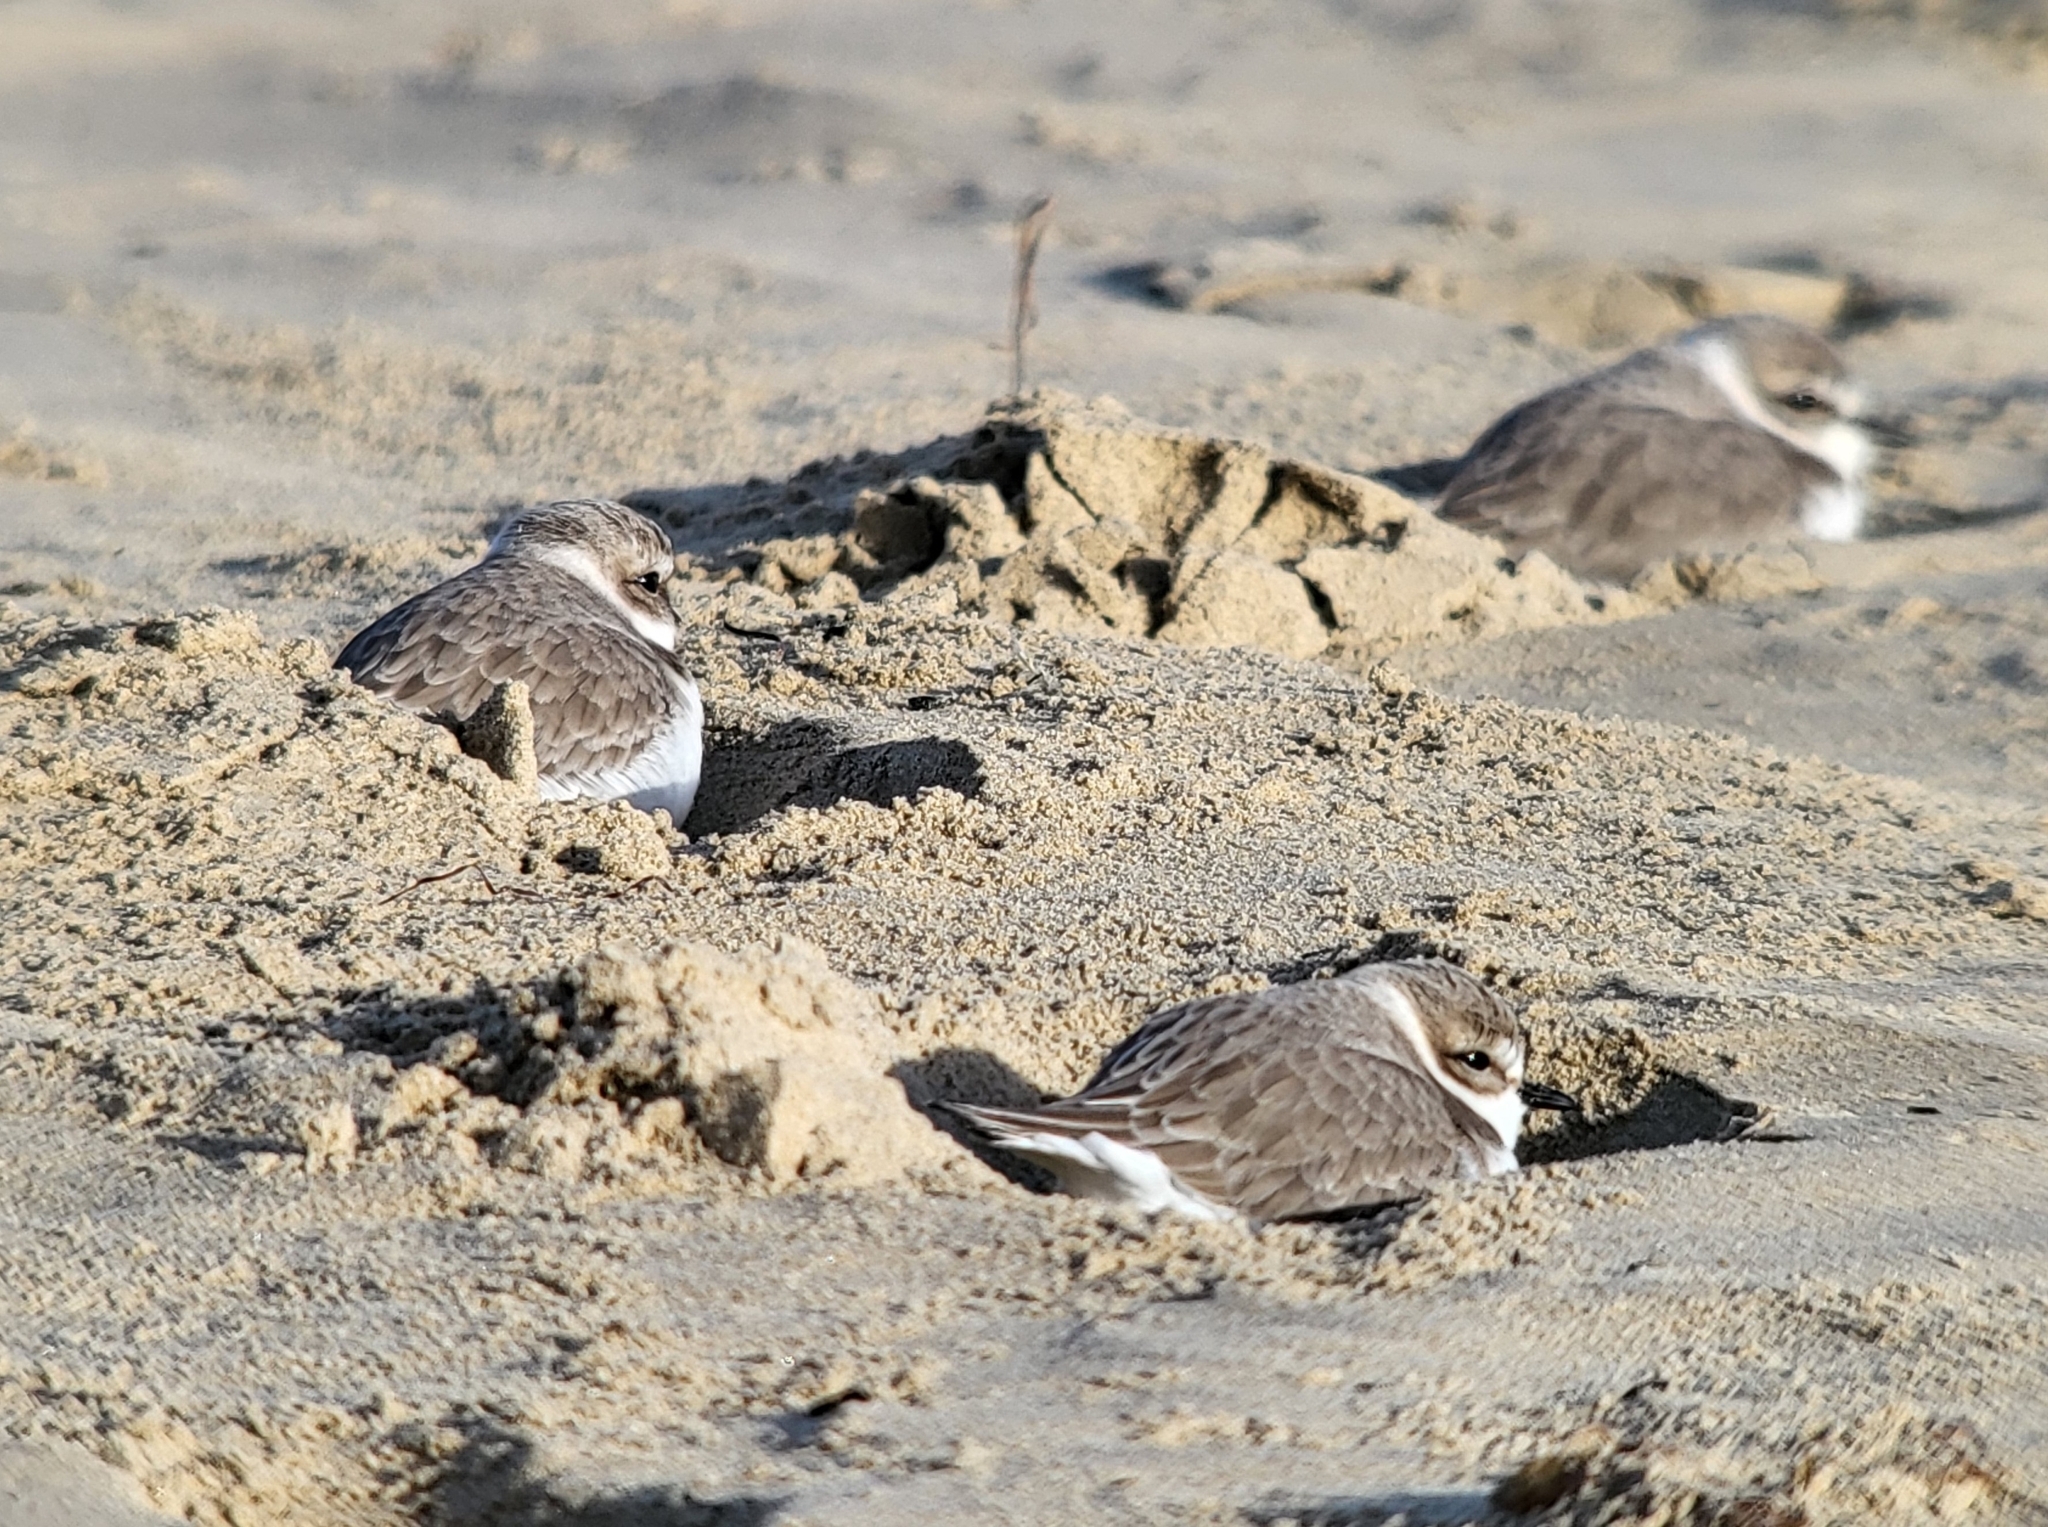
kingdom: Animalia
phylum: Chordata
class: Aves
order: Charadriiformes
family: Charadriidae
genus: Anarhynchus
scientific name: Anarhynchus
